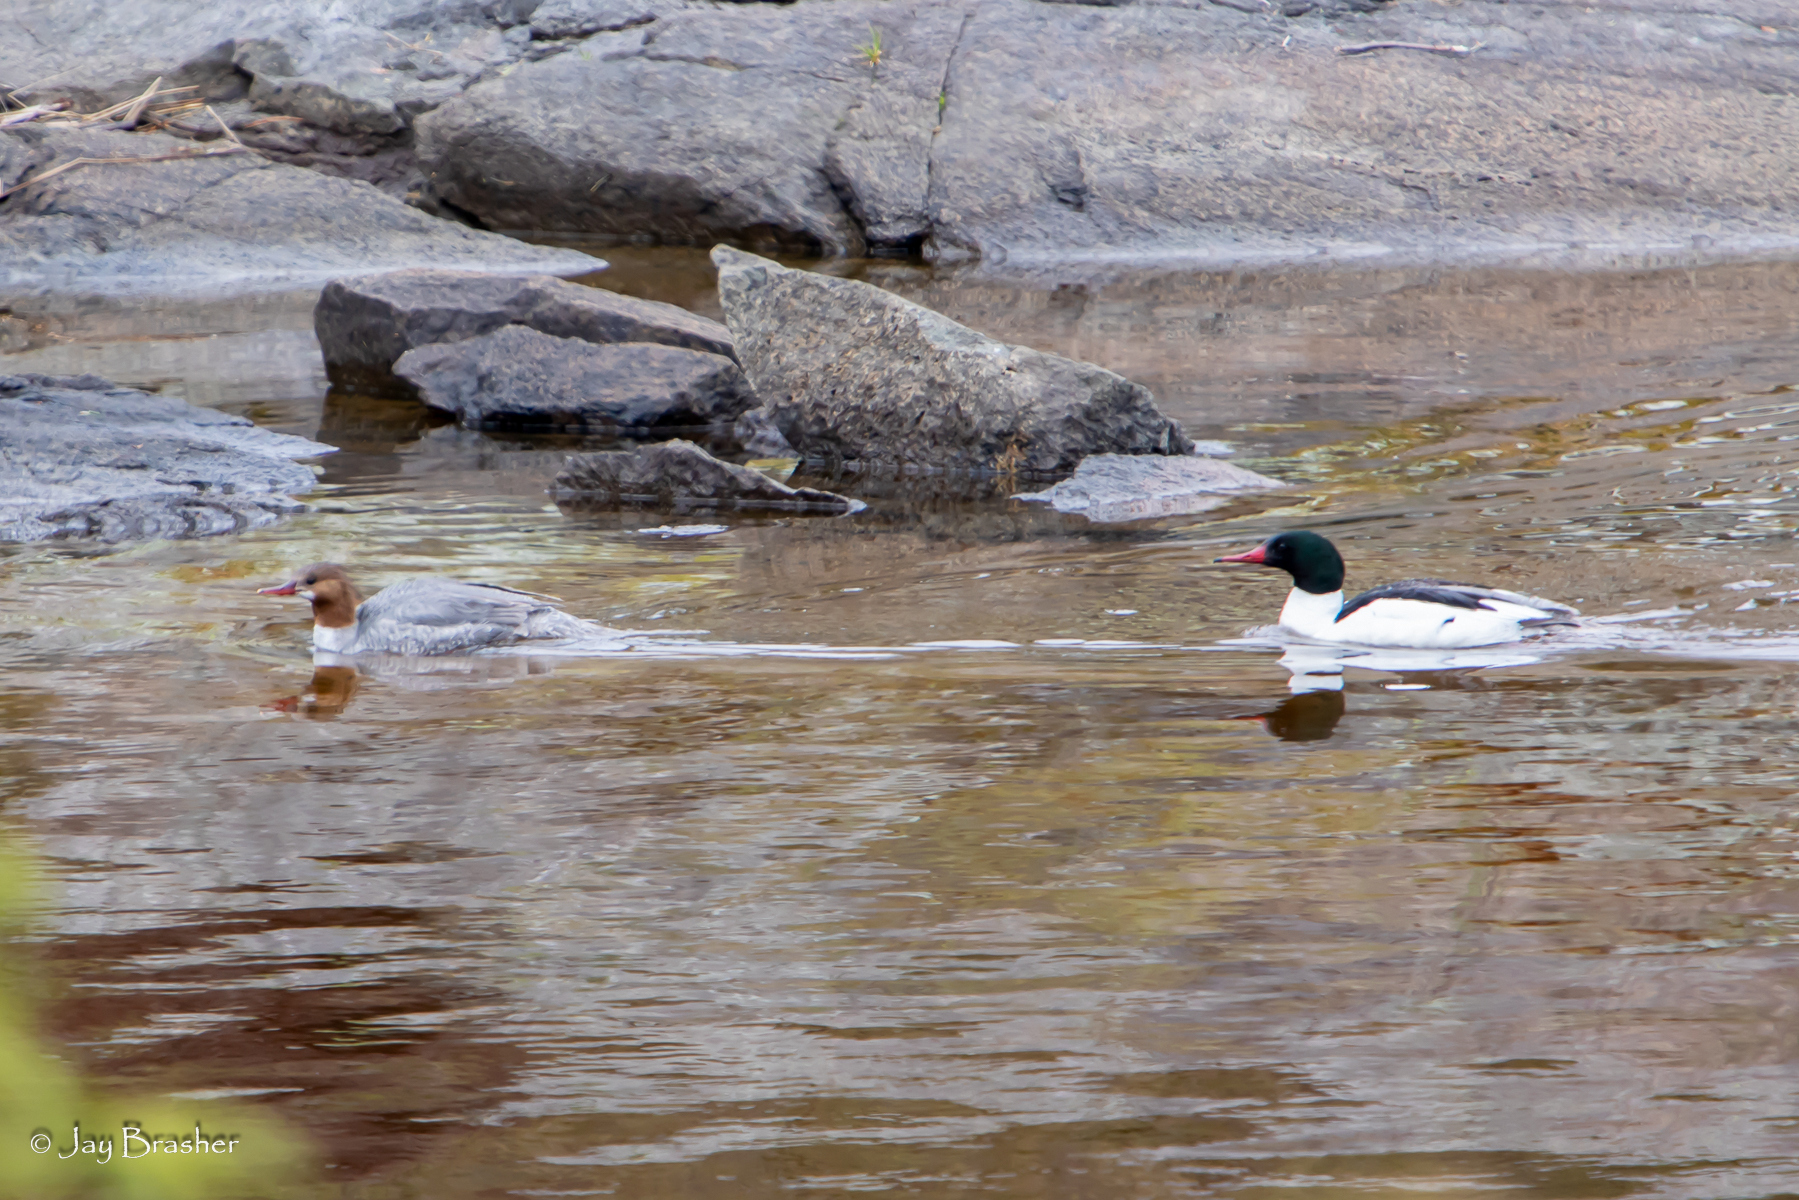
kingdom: Animalia
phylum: Chordata
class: Aves
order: Anseriformes
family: Anatidae
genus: Mergus
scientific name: Mergus merganser
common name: Common merganser
